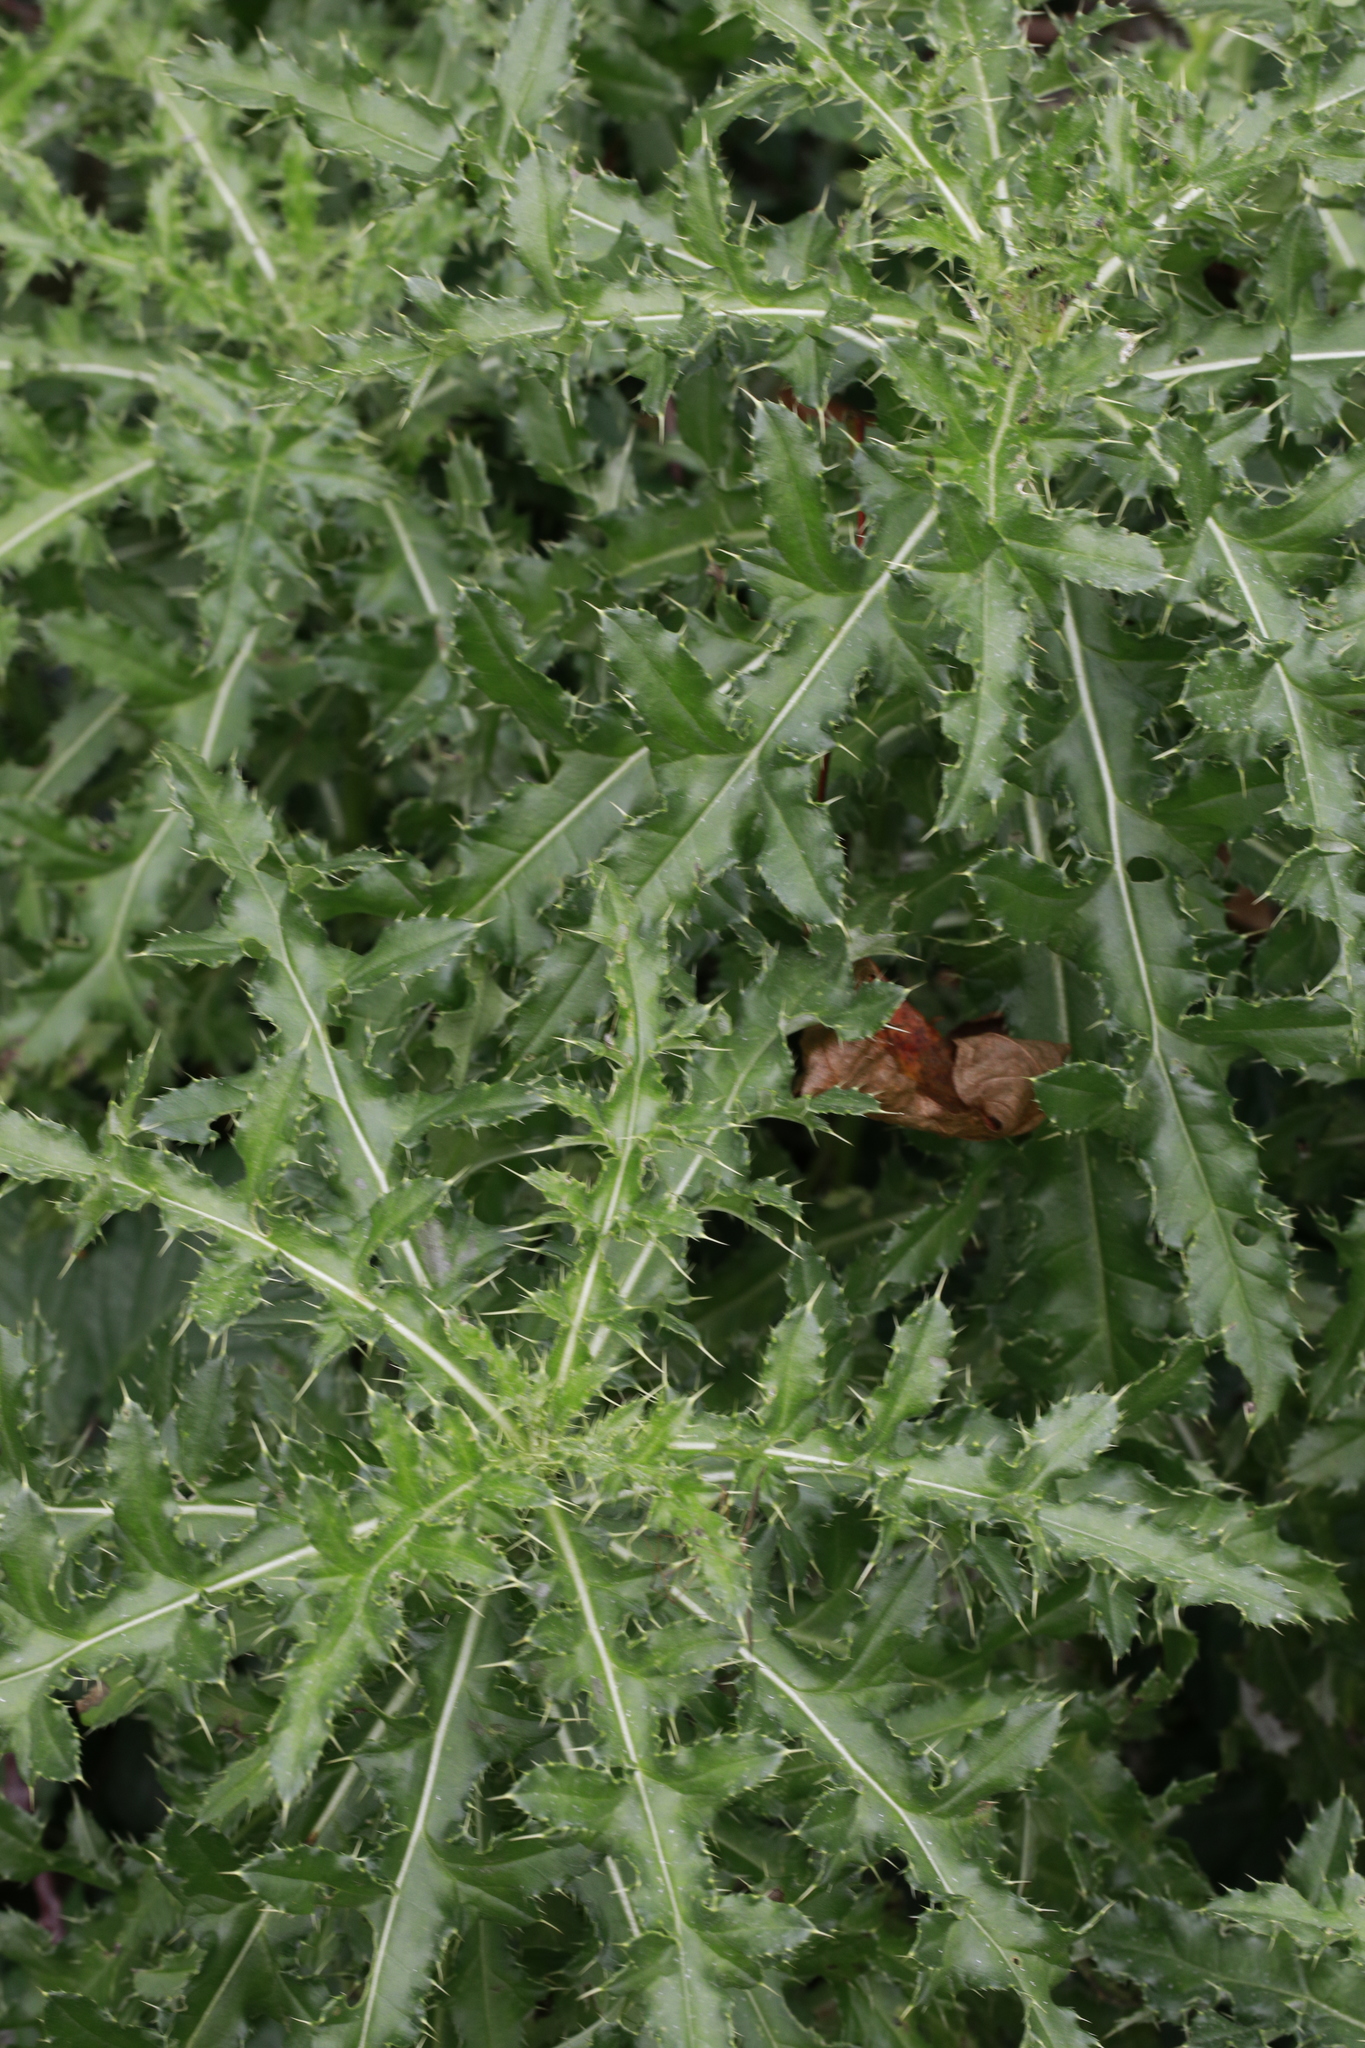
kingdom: Plantae
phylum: Tracheophyta
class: Magnoliopsida
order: Asterales
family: Asteraceae
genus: Cirsium
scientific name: Cirsium arvense
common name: Creeping thistle
